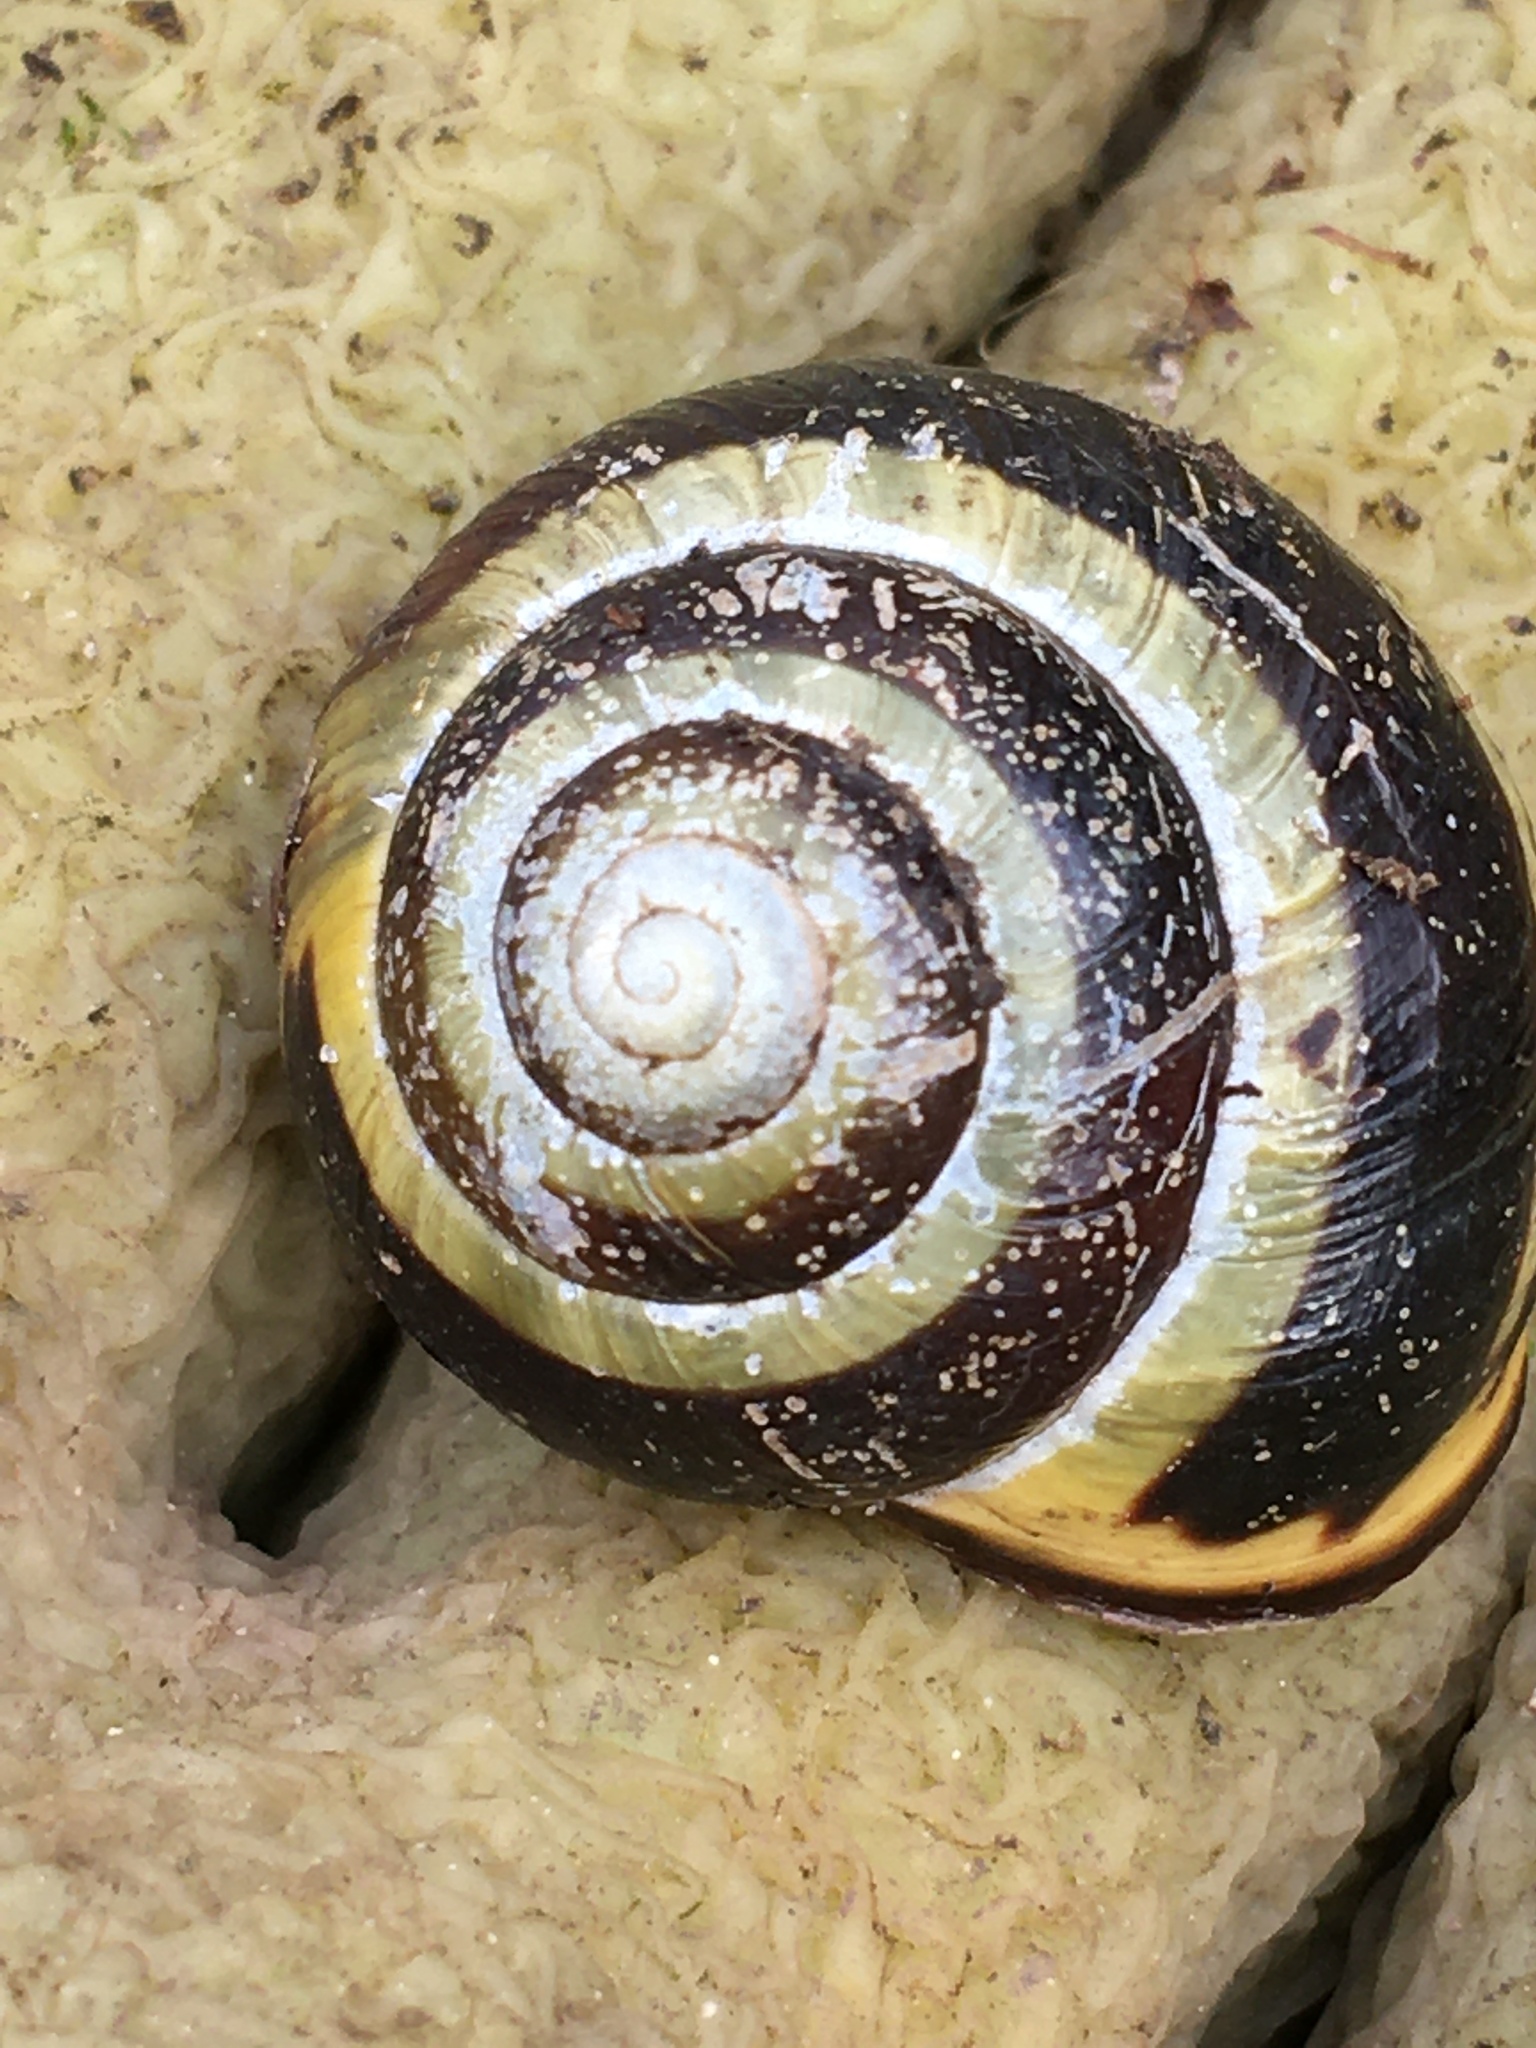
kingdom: Animalia
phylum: Mollusca
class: Gastropoda
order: Stylommatophora
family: Helicidae
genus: Cepaea
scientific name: Cepaea nemoralis
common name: Grovesnail
